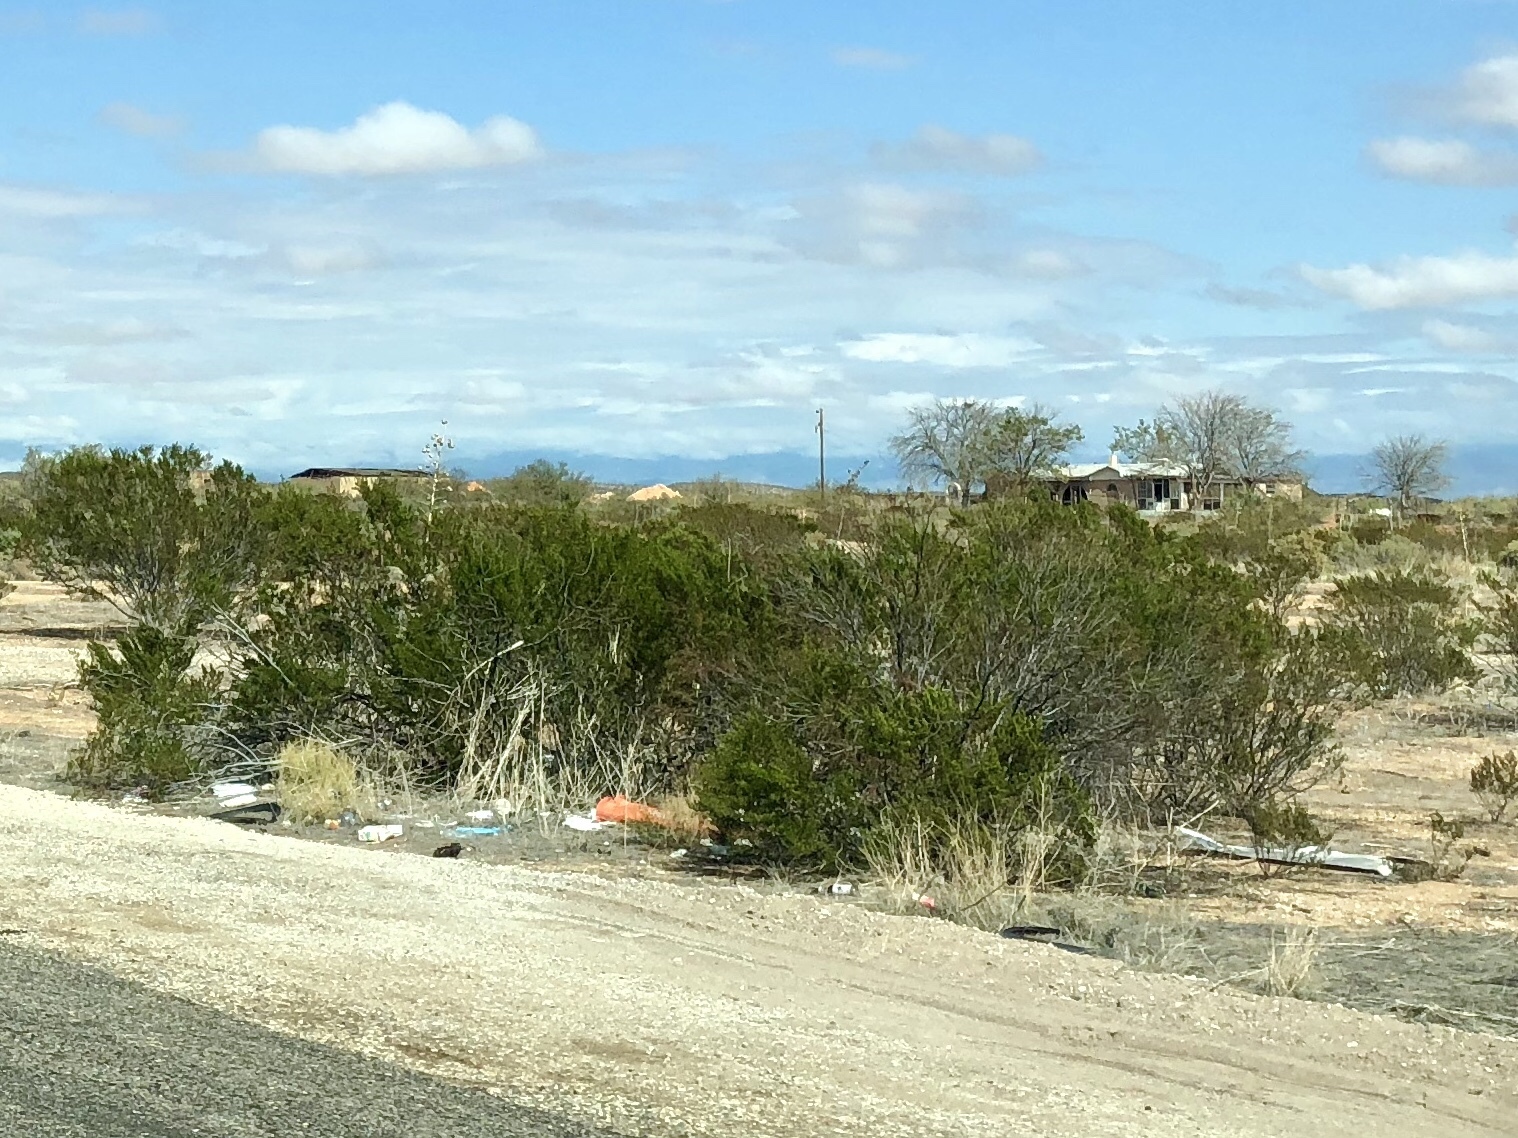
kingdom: Plantae
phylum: Tracheophyta
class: Magnoliopsida
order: Zygophyllales
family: Zygophyllaceae
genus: Larrea
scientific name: Larrea tridentata
